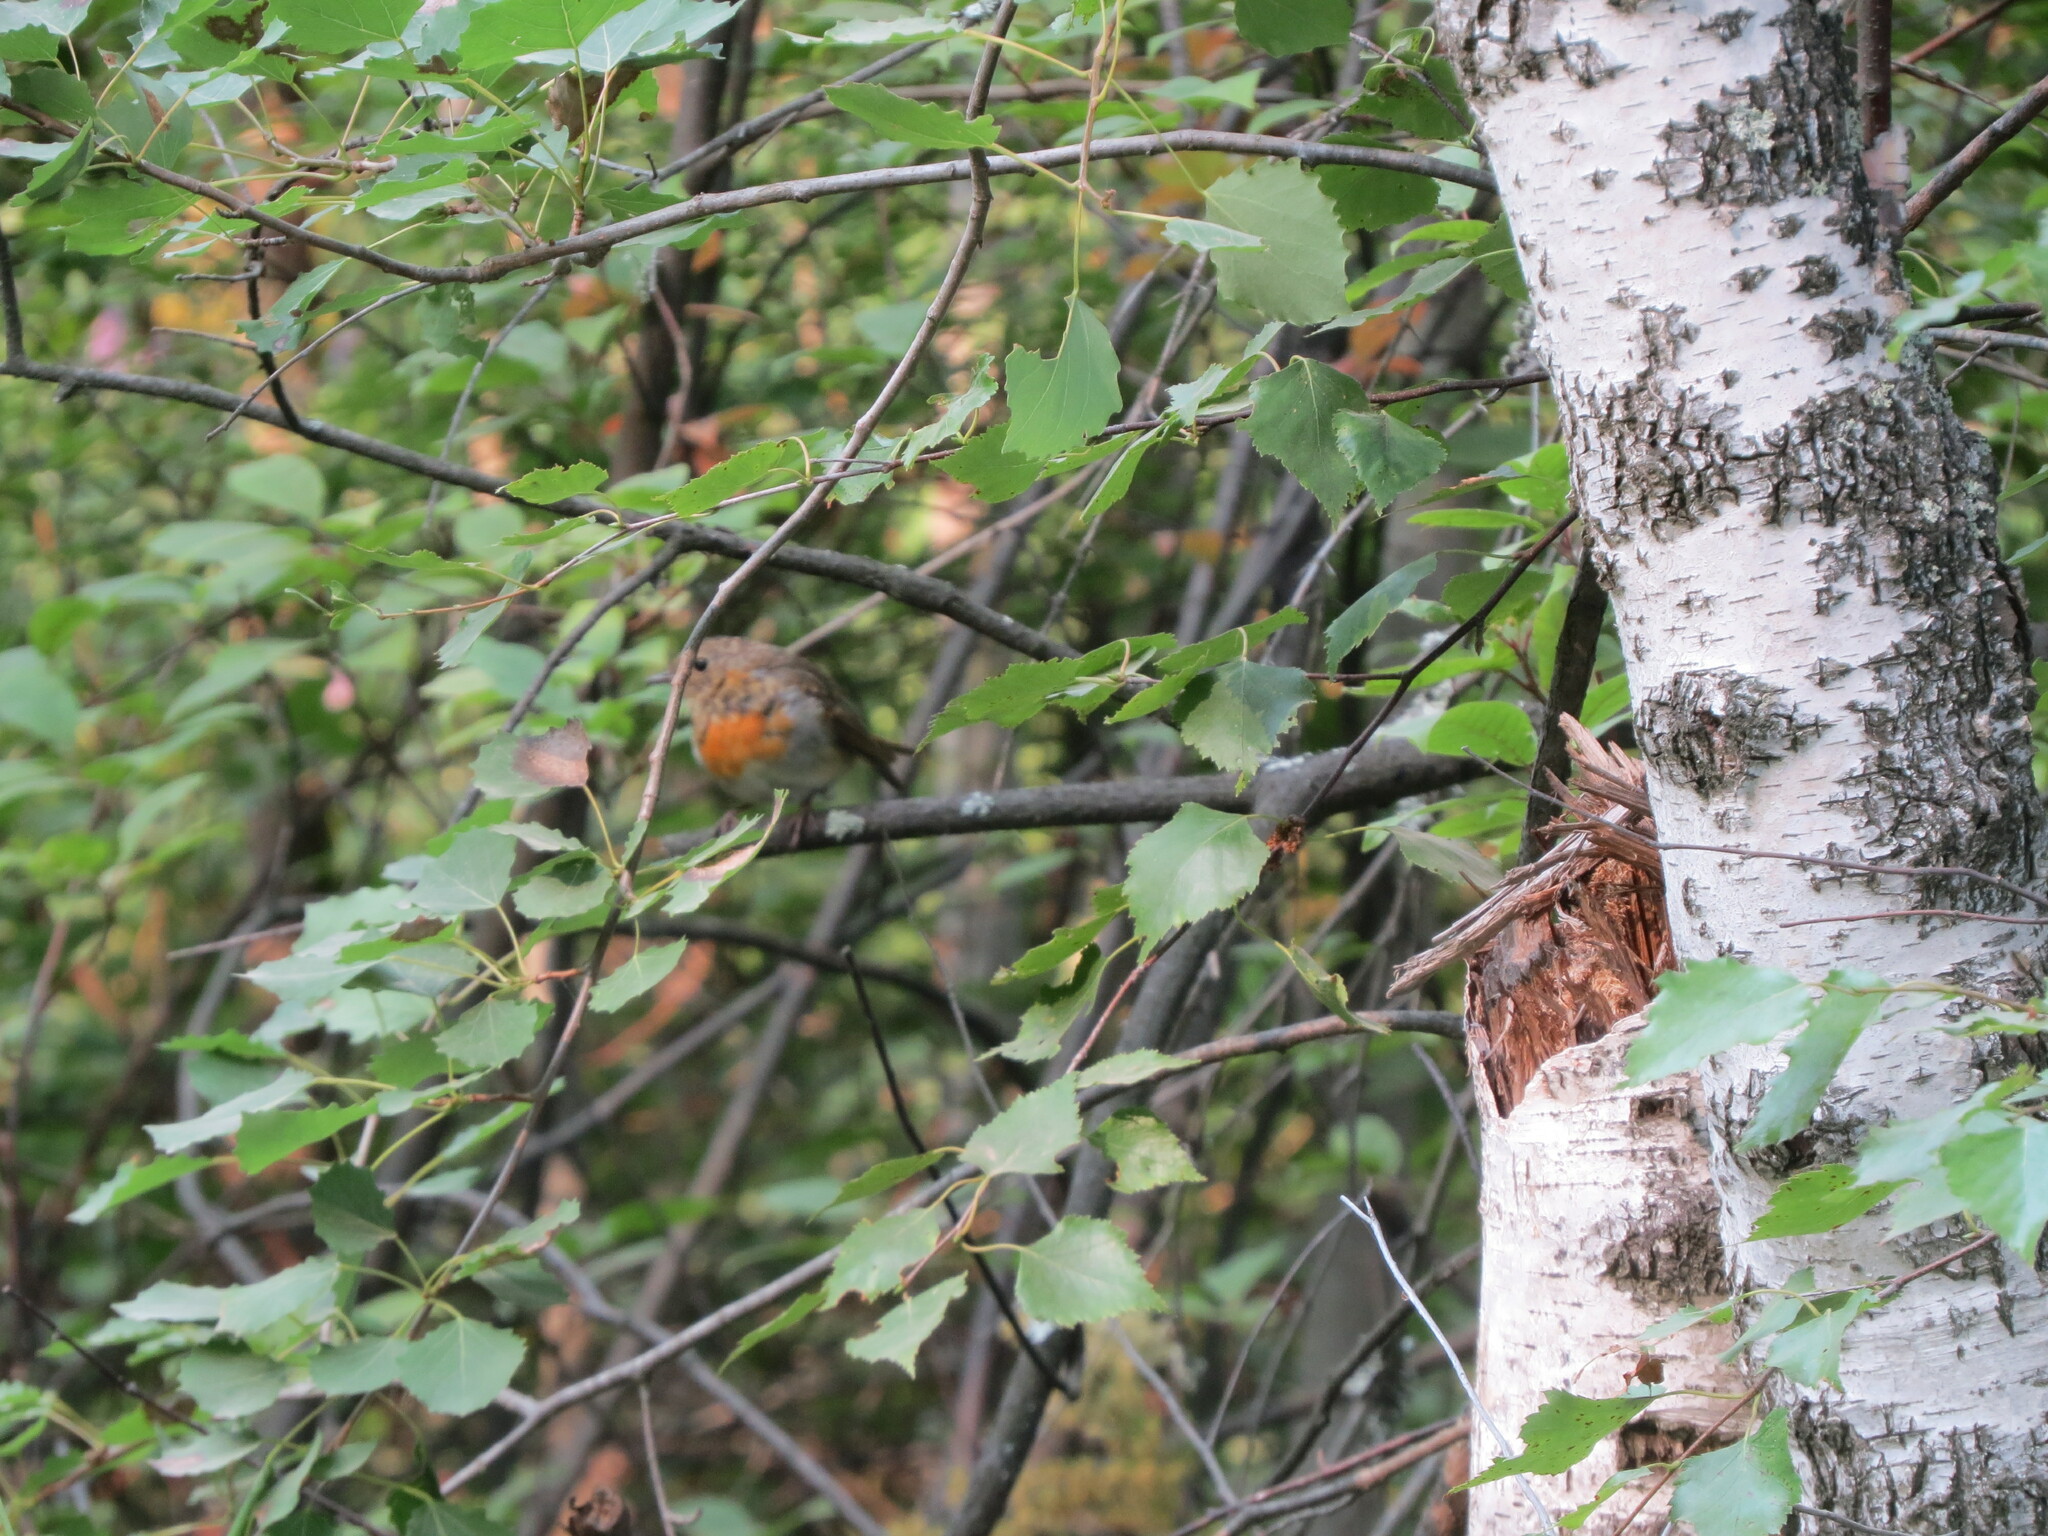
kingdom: Animalia
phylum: Chordata
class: Aves
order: Passeriformes
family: Muscicapidae
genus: Erithacus
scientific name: Erithacus rubecula
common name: European robin
